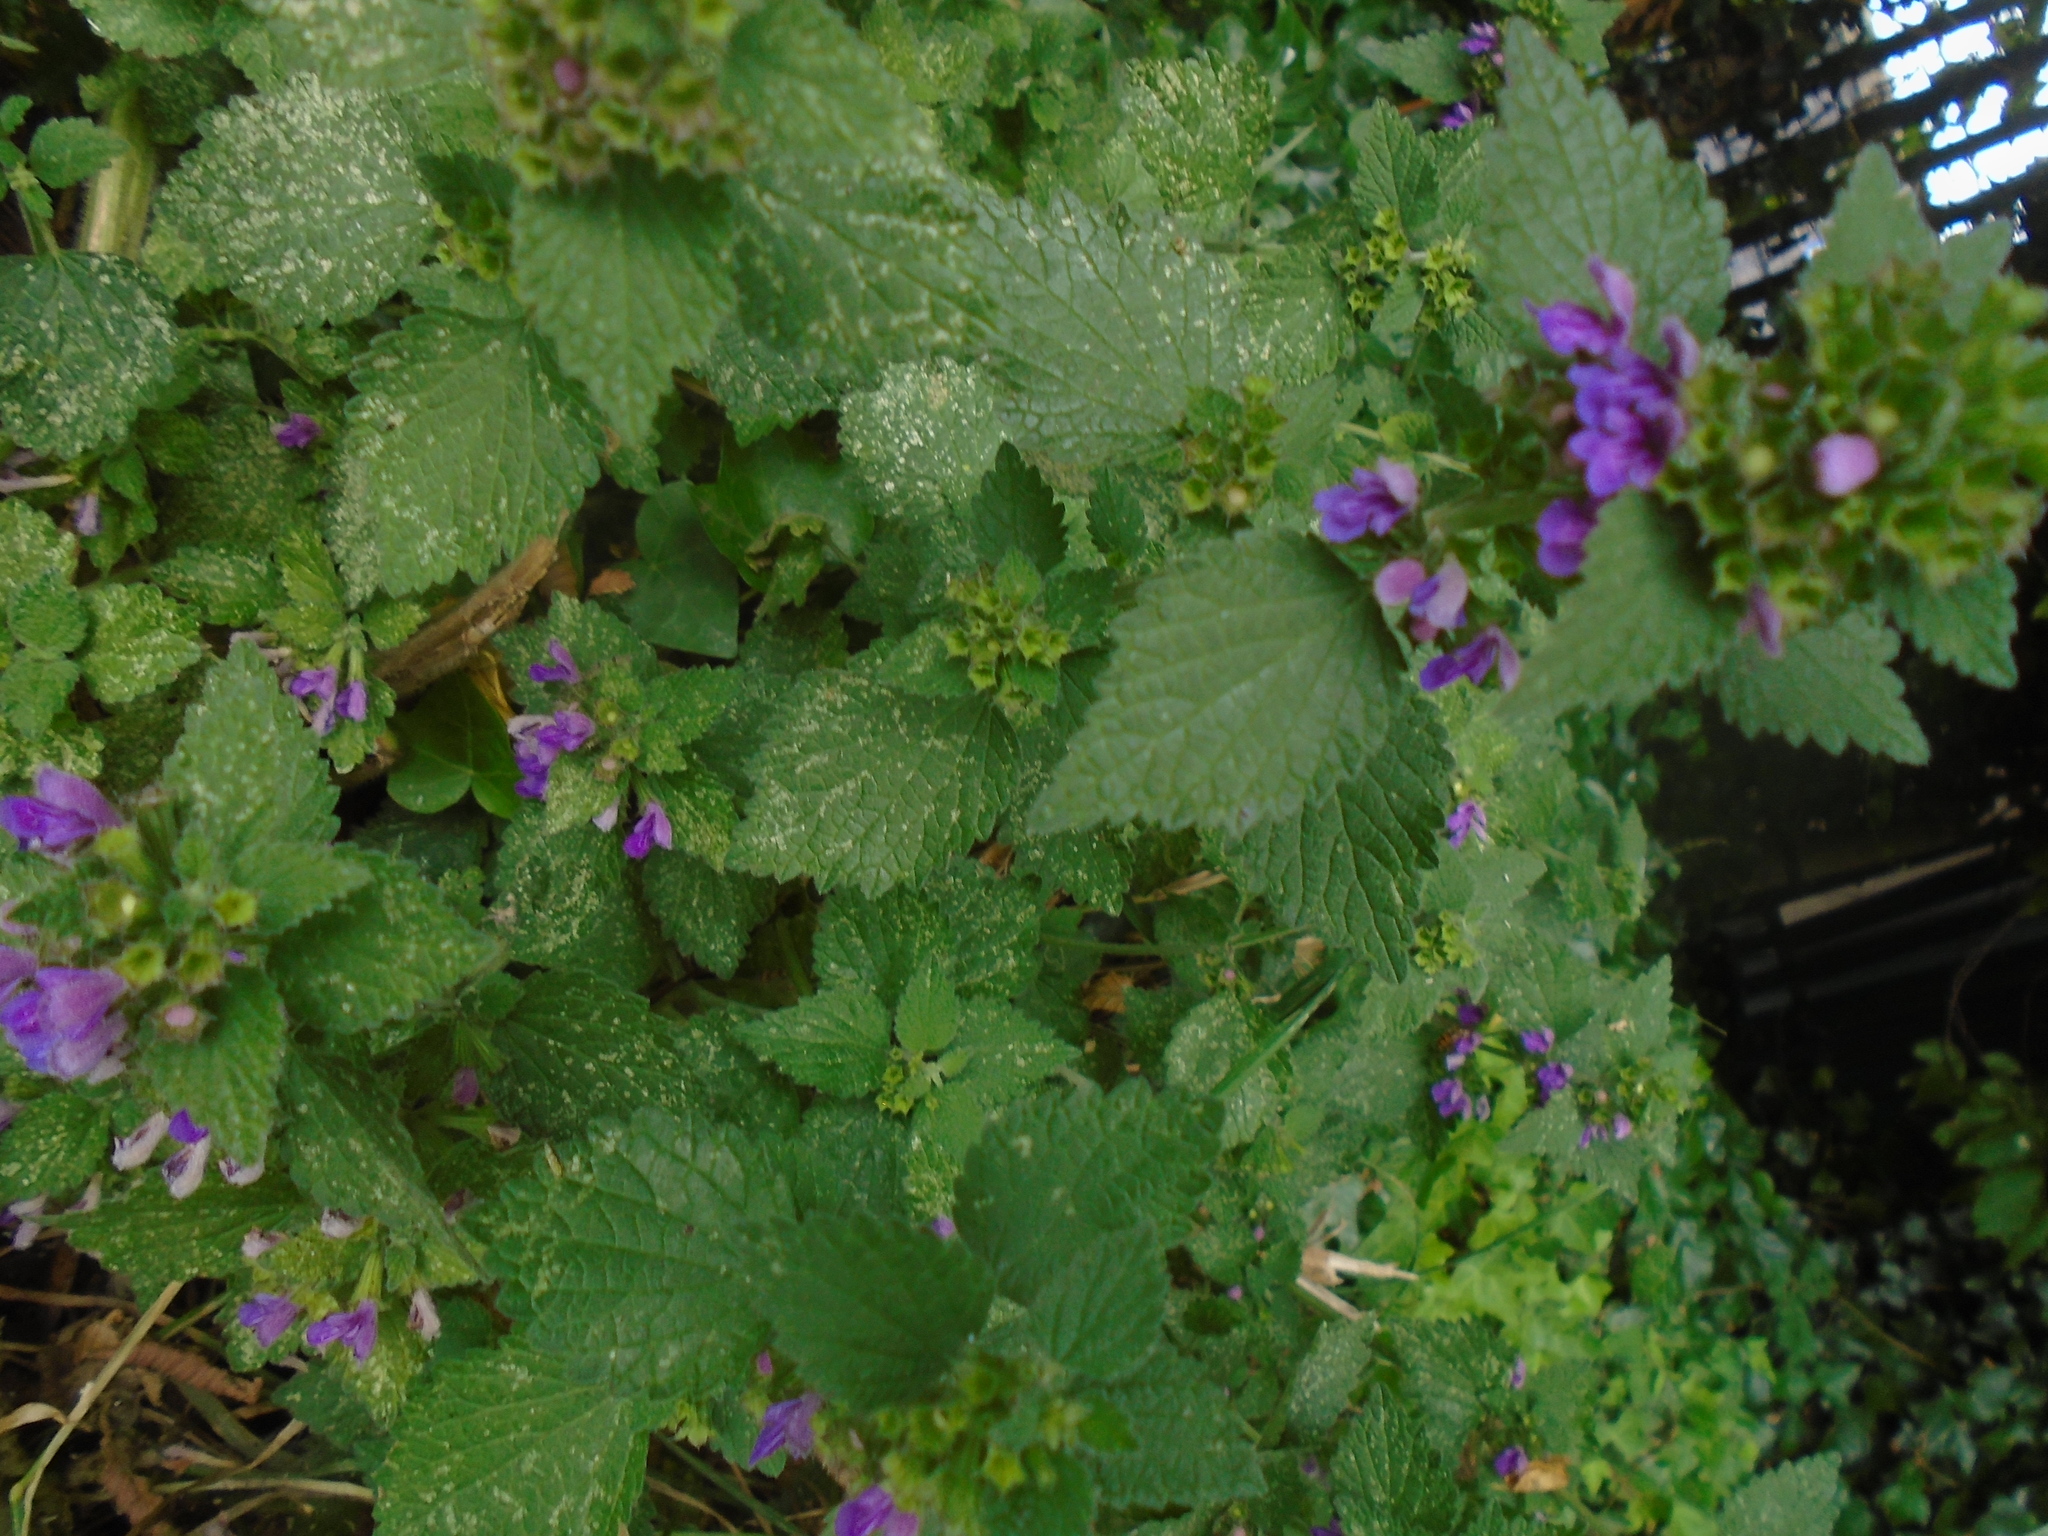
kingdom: Plantae
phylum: Tracheophyta
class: Magnoliopsida
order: Lamiales
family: Lamiaceae
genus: Ballota
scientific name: Ballota nigra
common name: Black horehound
